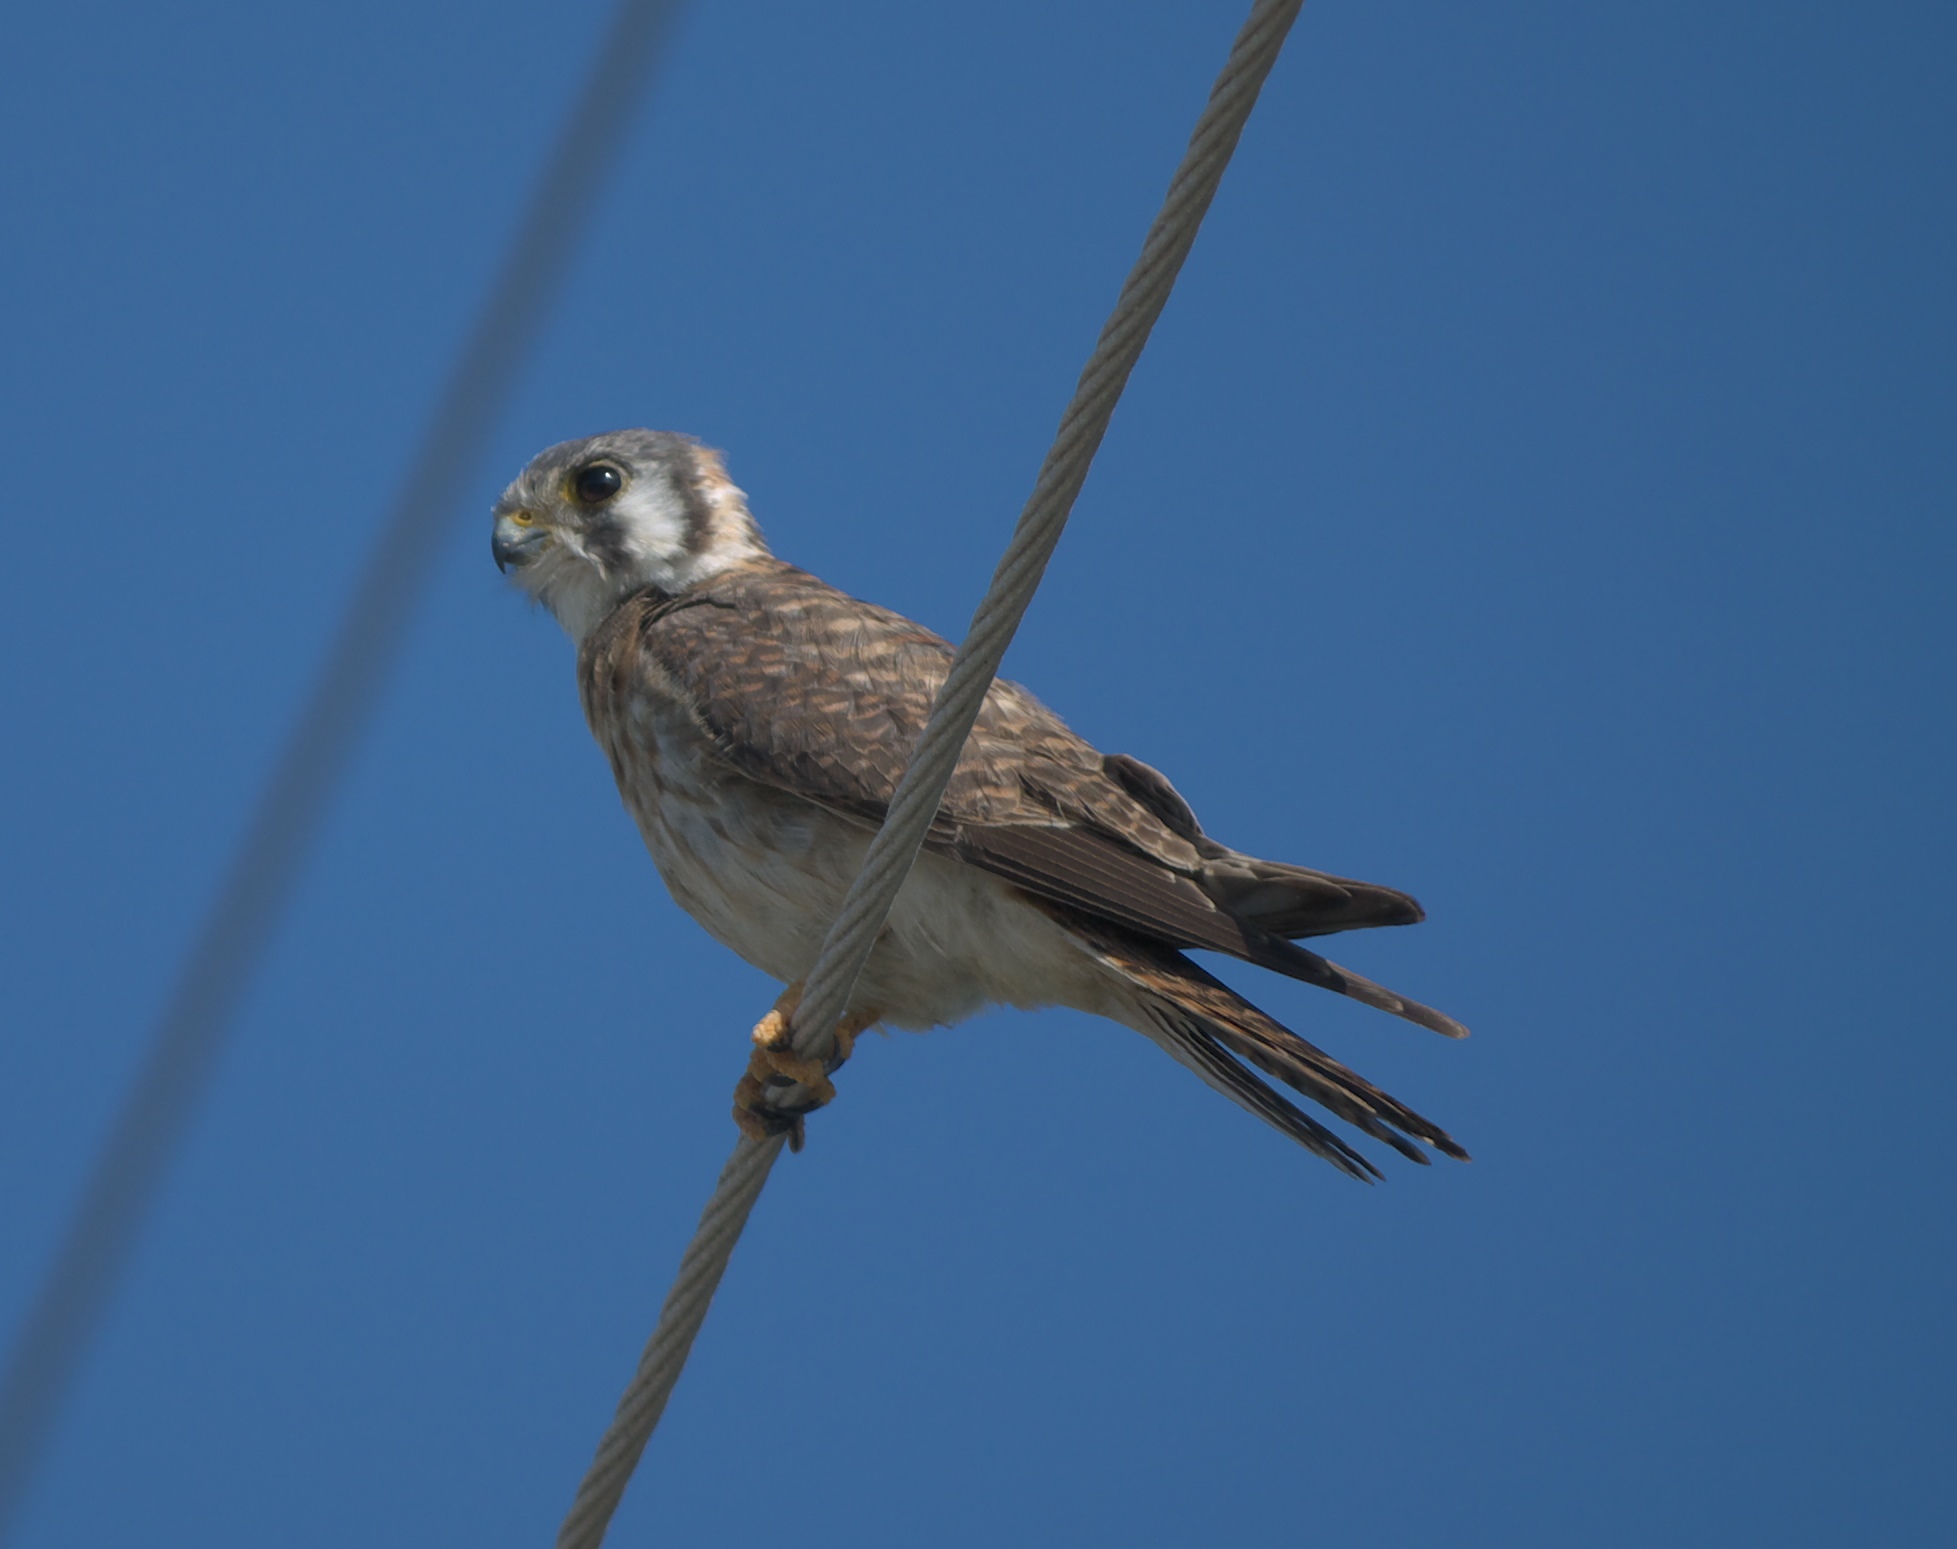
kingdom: Animalia
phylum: Chordata
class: Aves
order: Falconiformes
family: Falconidae
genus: Falco
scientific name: Falco sparverius
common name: American kestrel
